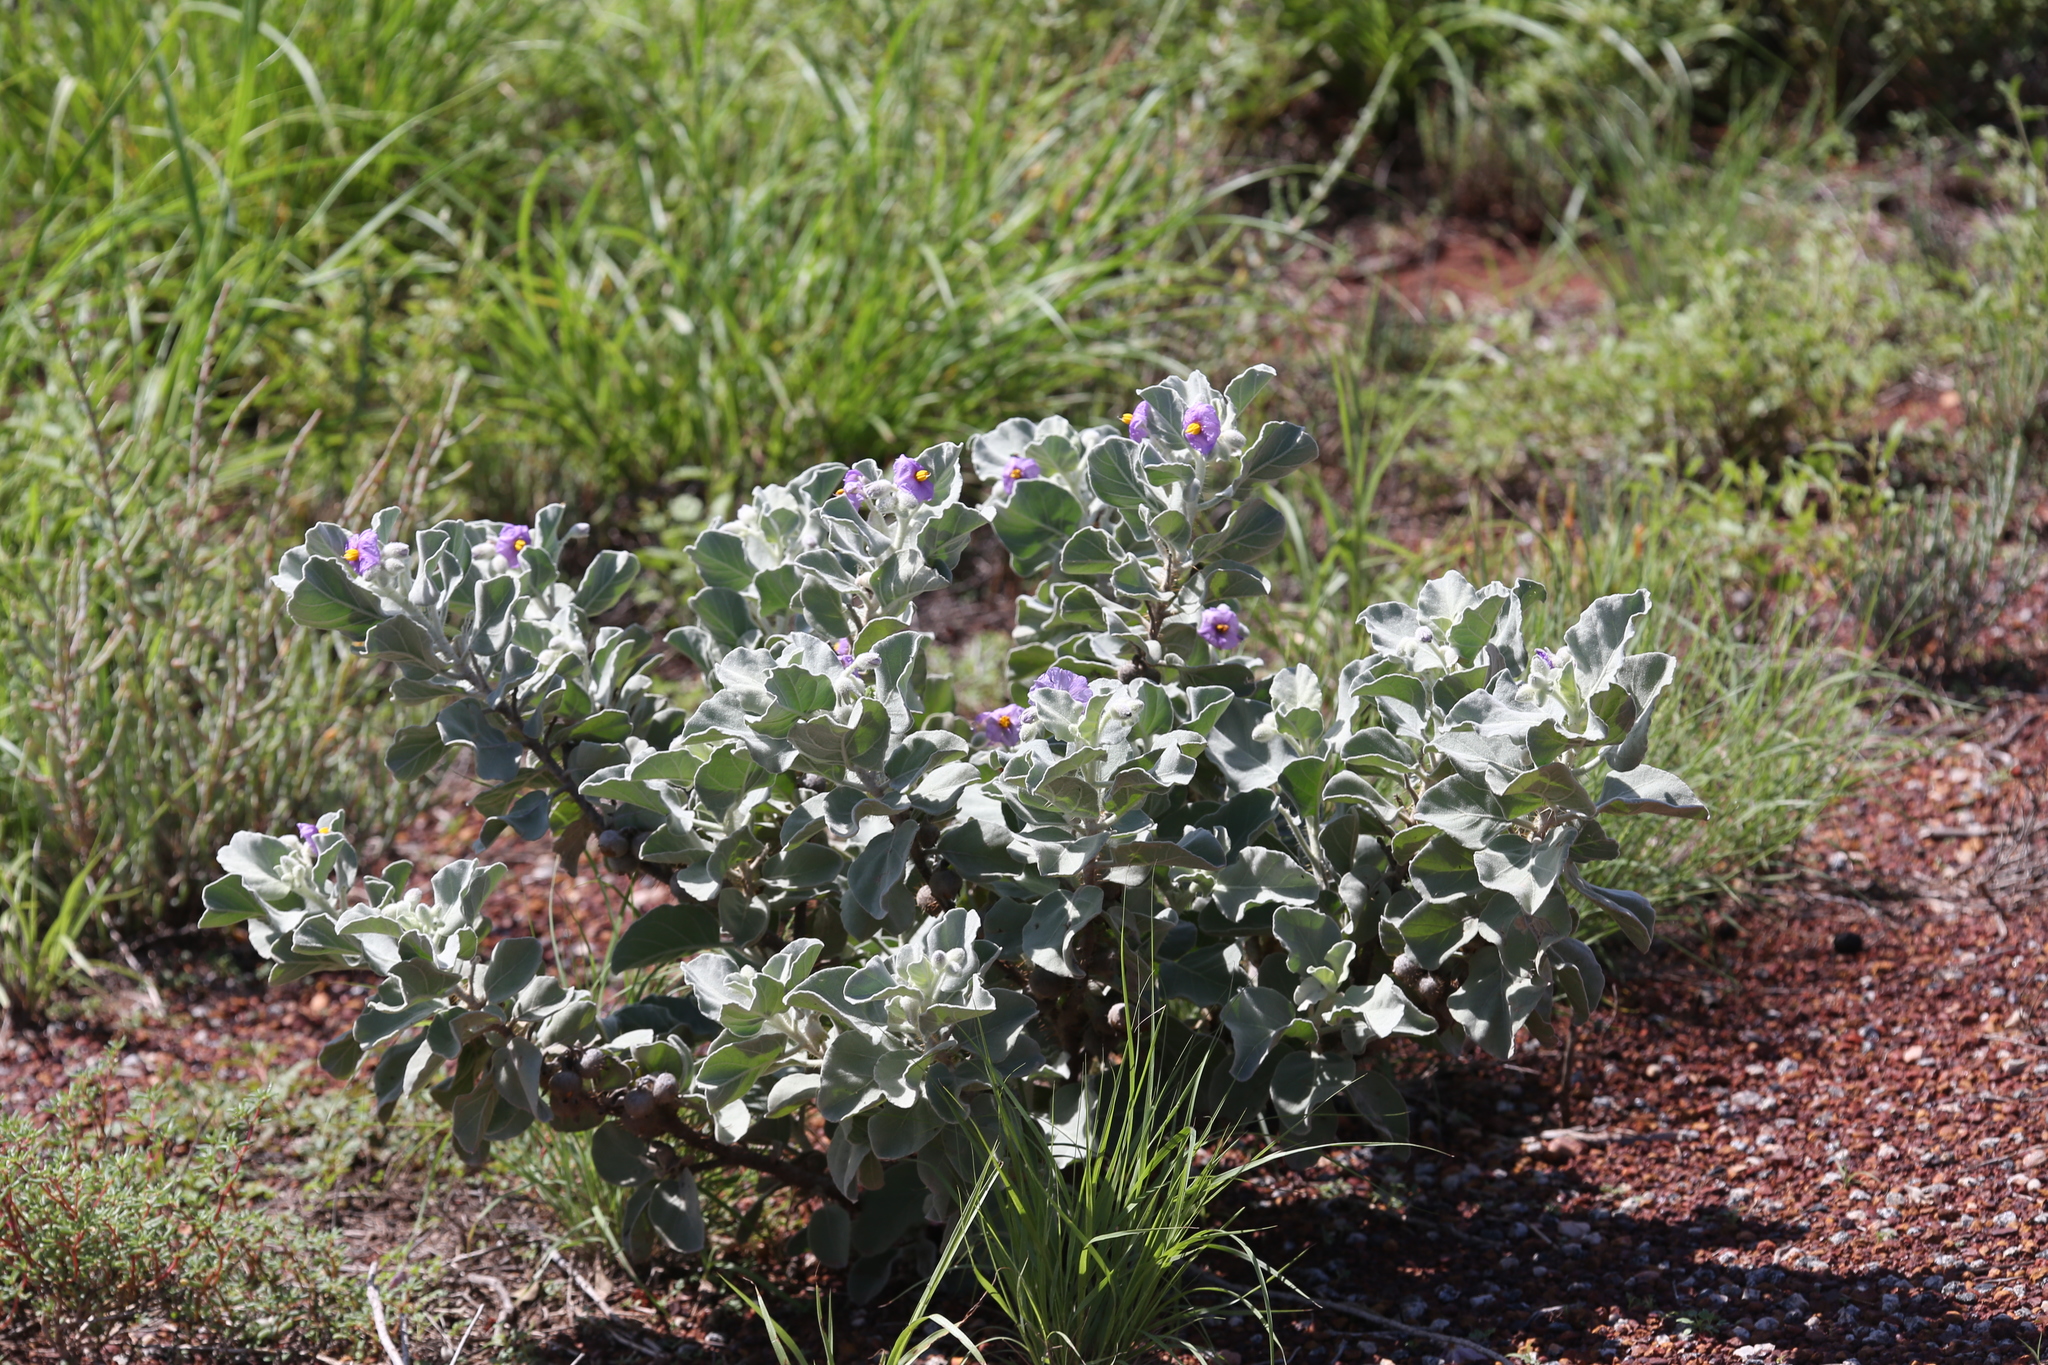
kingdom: Plantae
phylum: Tracheophyta
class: Magnoliopsida
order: Solanales
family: Solanaceae
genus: Solanum
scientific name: Solanum lasiophyllum
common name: Flannelbush
